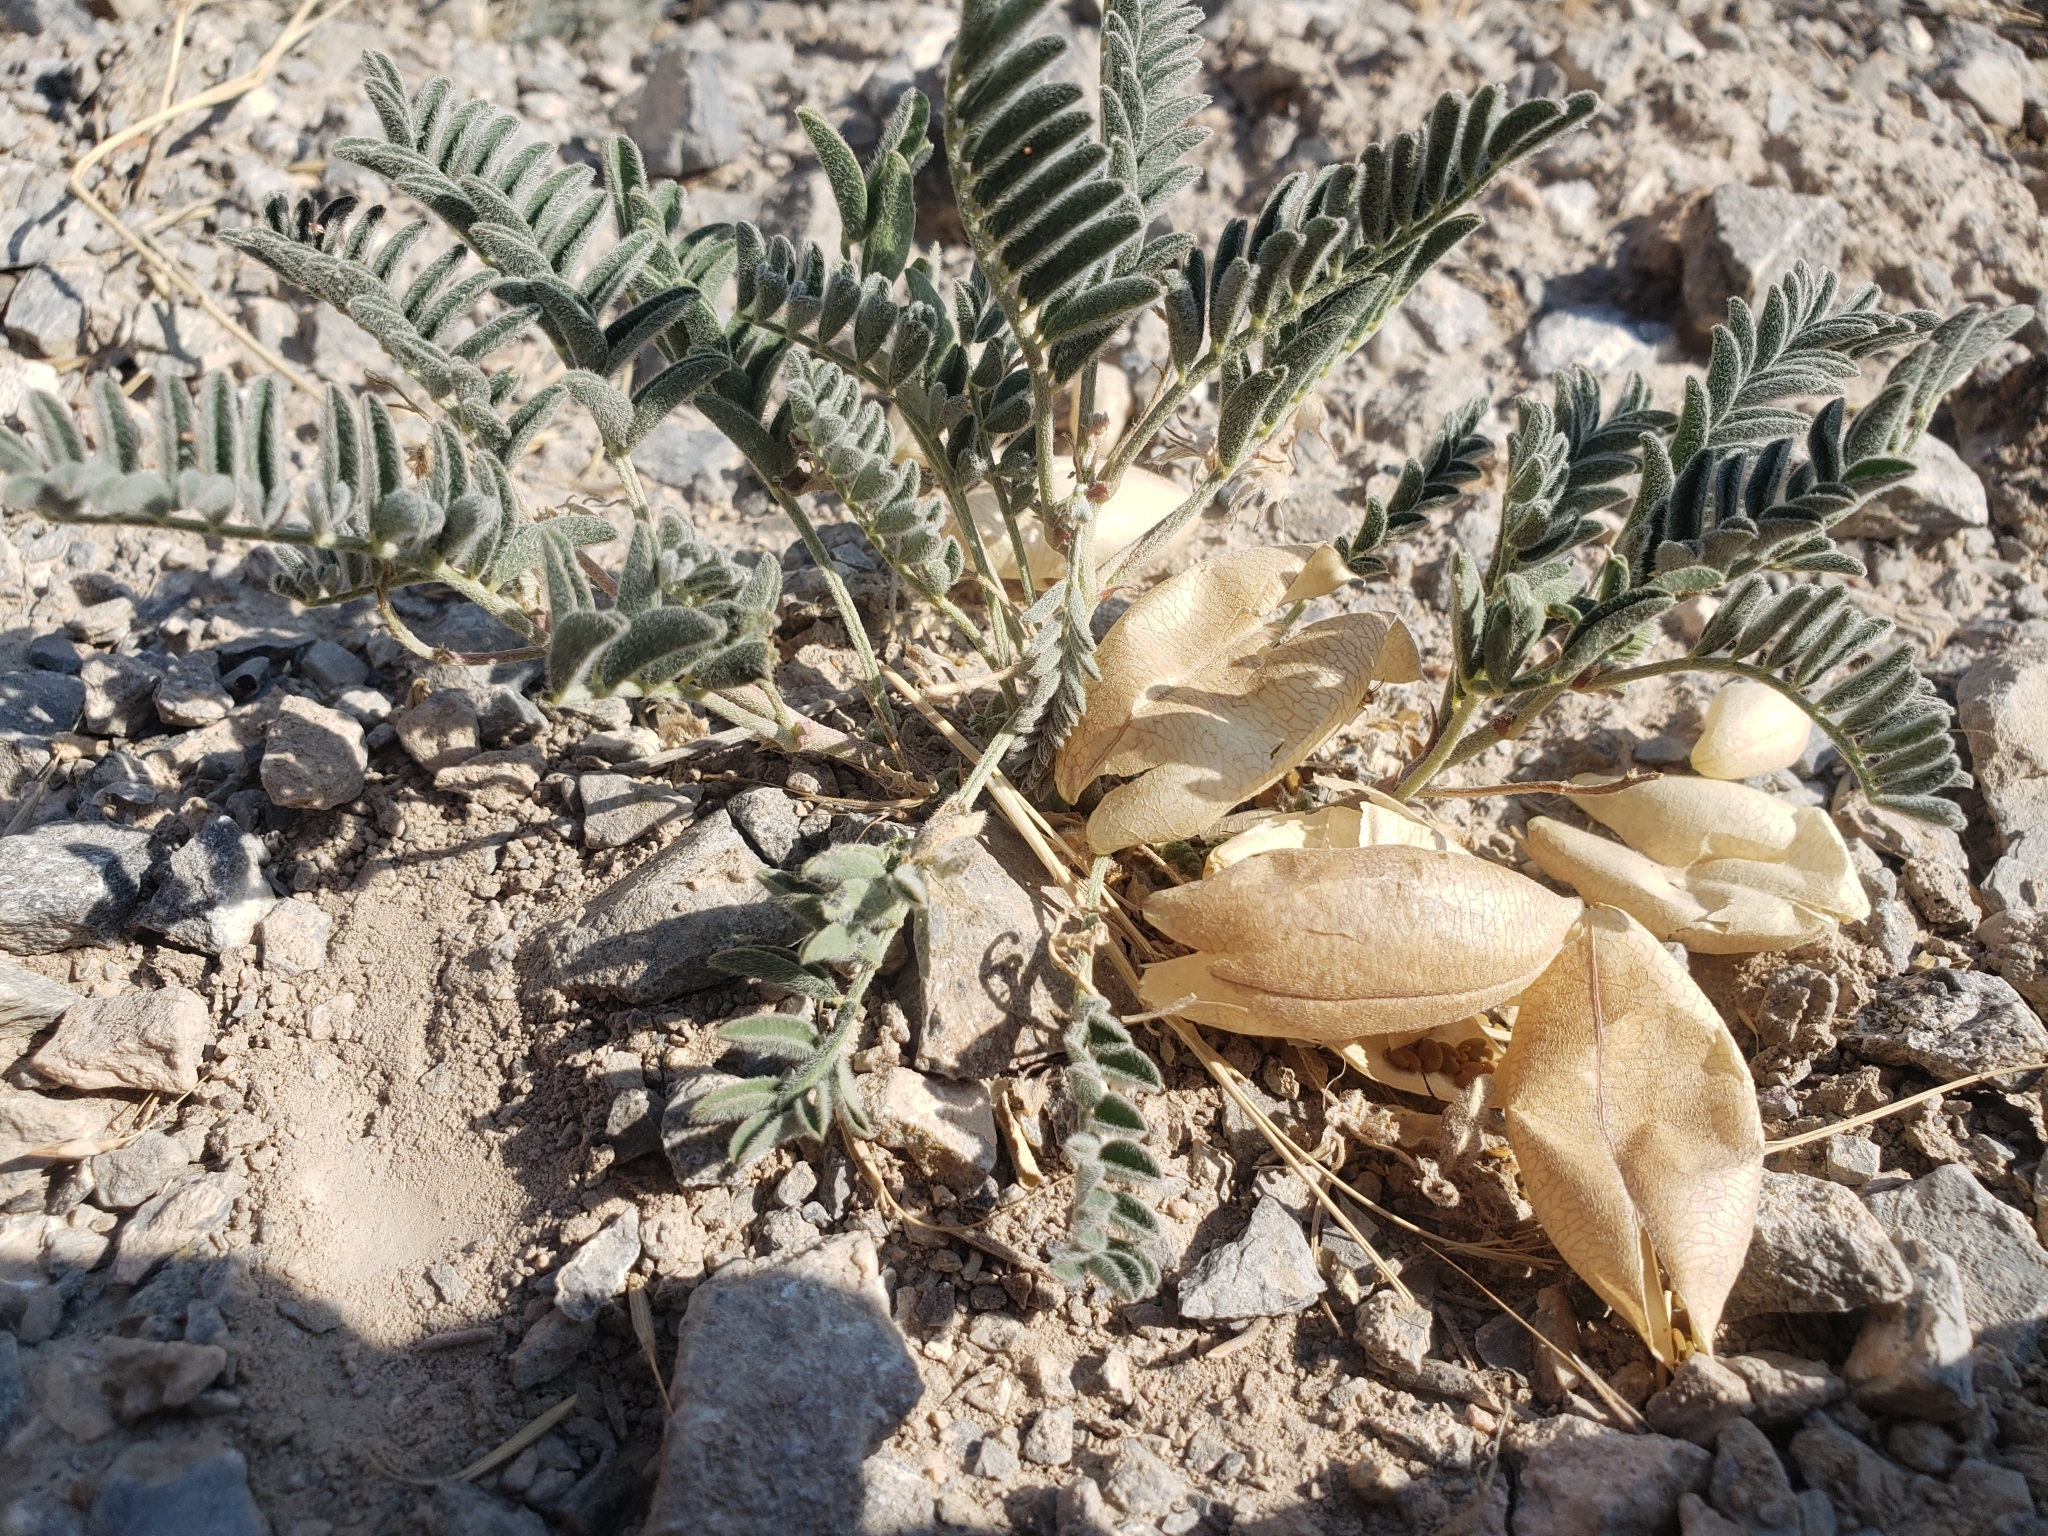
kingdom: Plantae
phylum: Tracheophyta
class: Magnoliopsida
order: Fabales
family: Fabaceae
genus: Astragalus
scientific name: Astragalus aquilonius
